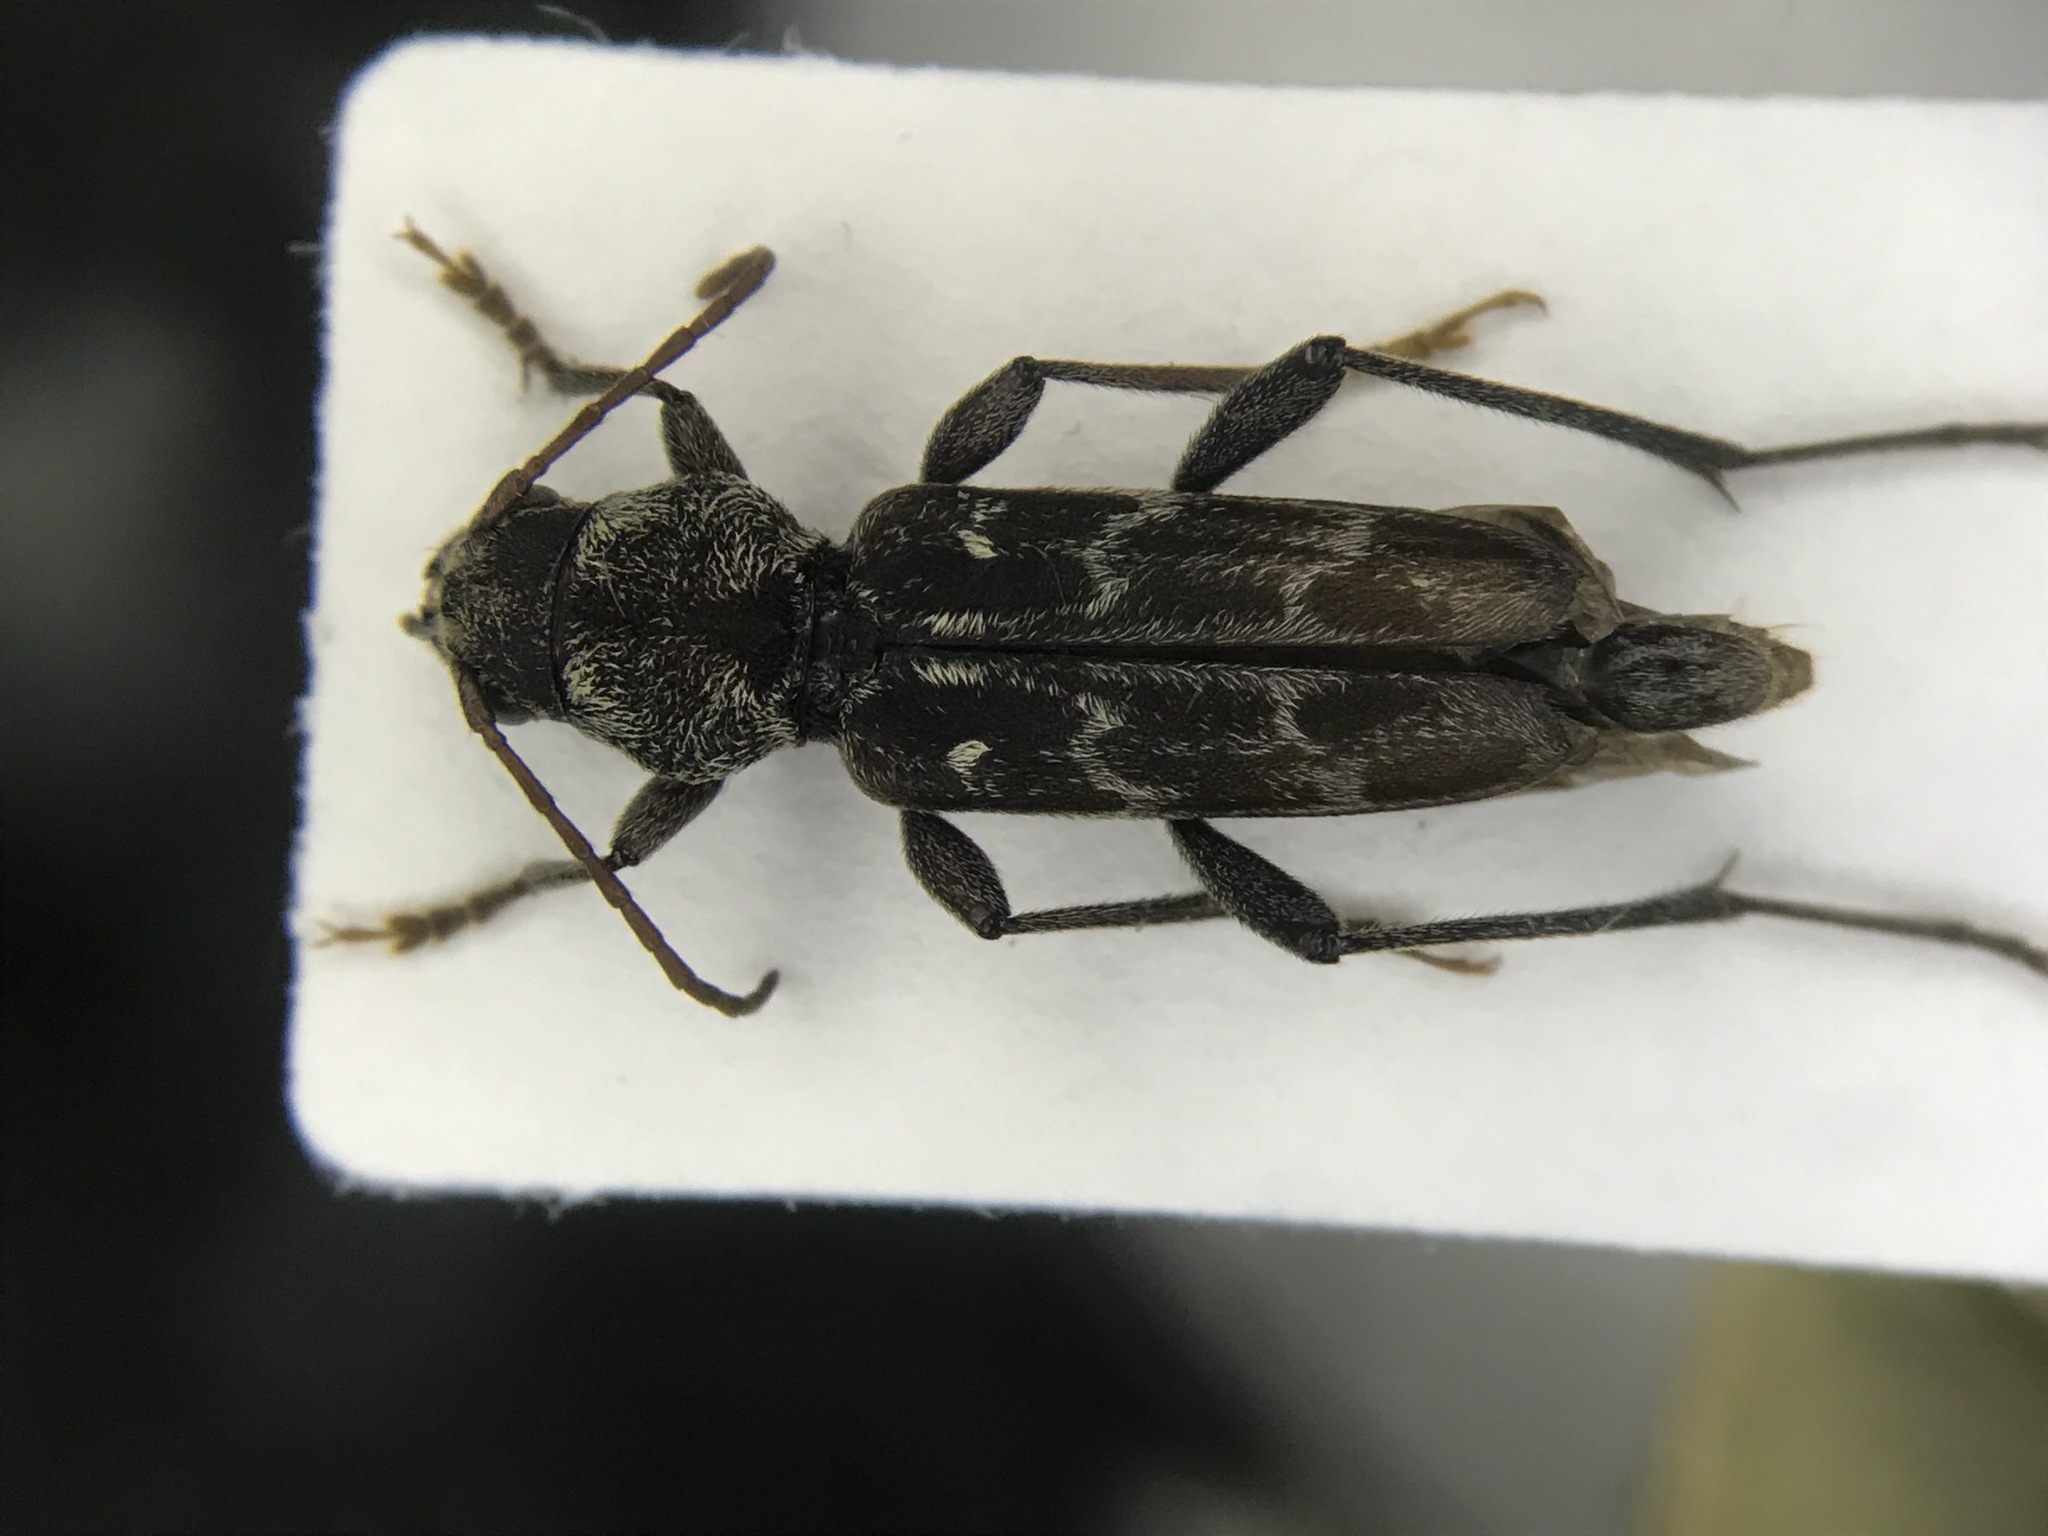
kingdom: Animalia
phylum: Arthropoda
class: Insecta
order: Coleoptera
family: Cerambycidae
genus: Xylotrechus
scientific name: Xylotrechus integer
